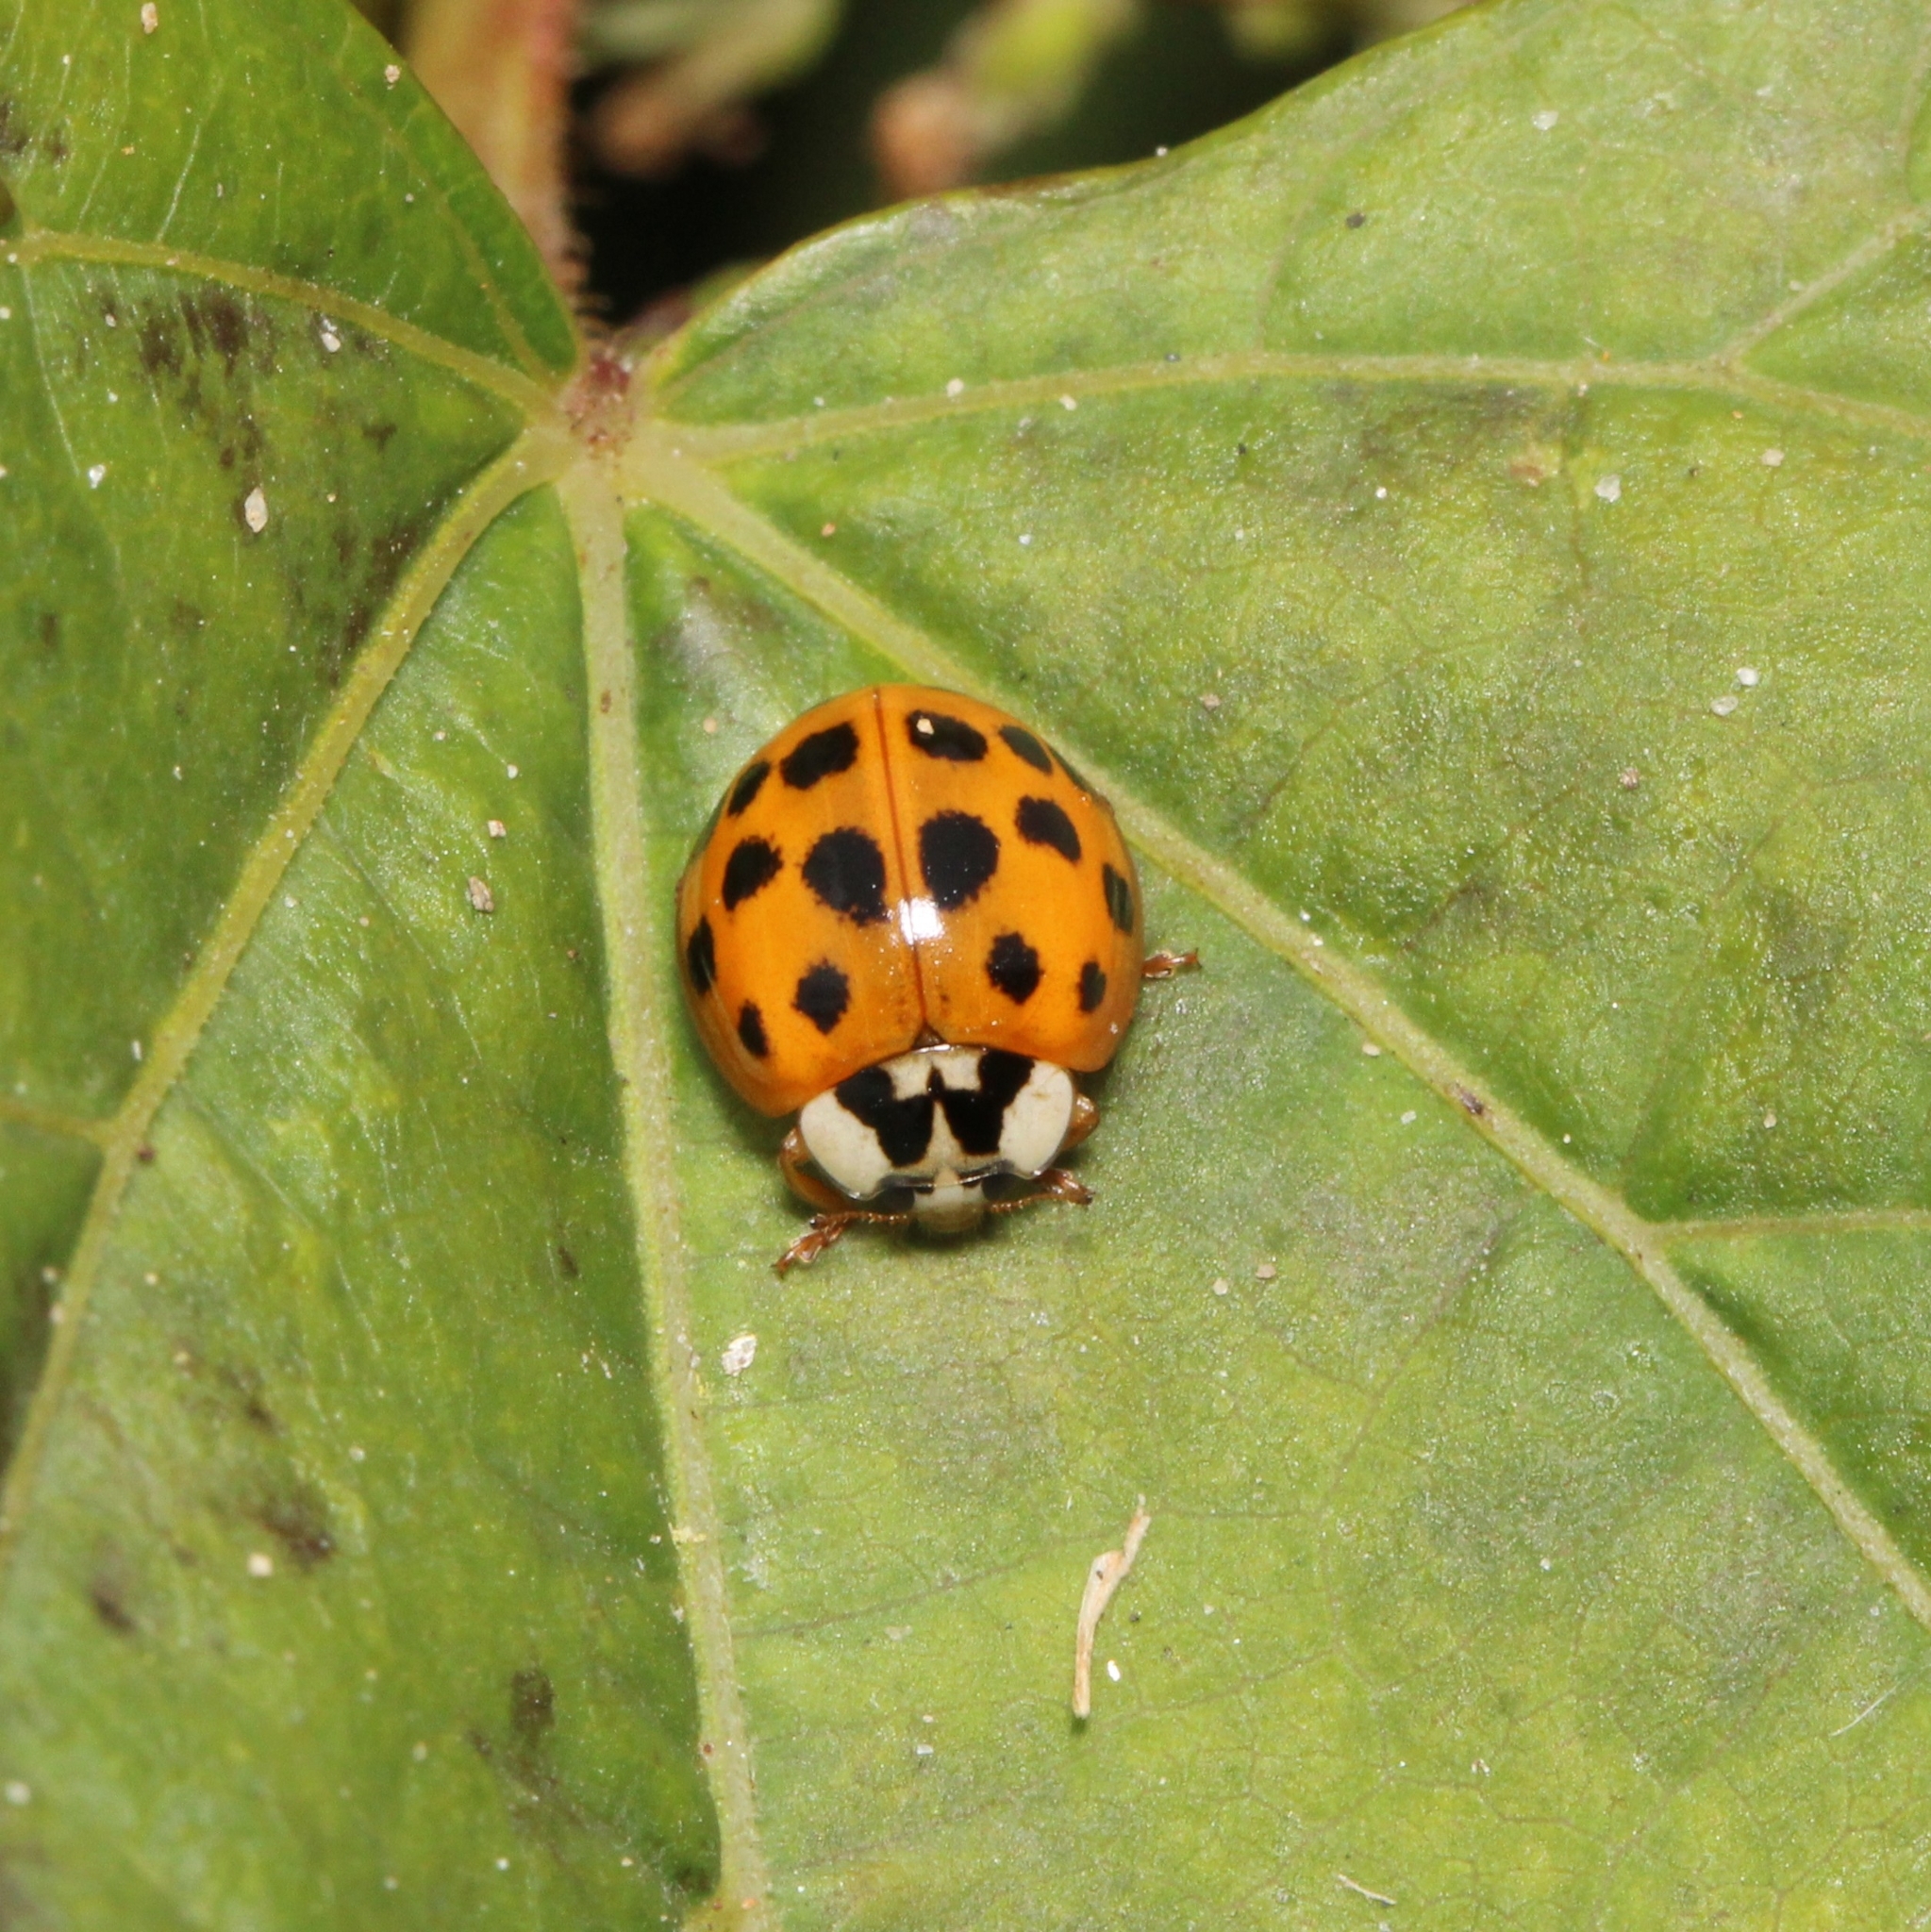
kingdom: Animalia
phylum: Arthropoda
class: Insecta
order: Coleoptera
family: Coccinellidae
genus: Harmonia
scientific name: Harmonia axyridis
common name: Harlequin ladybird
